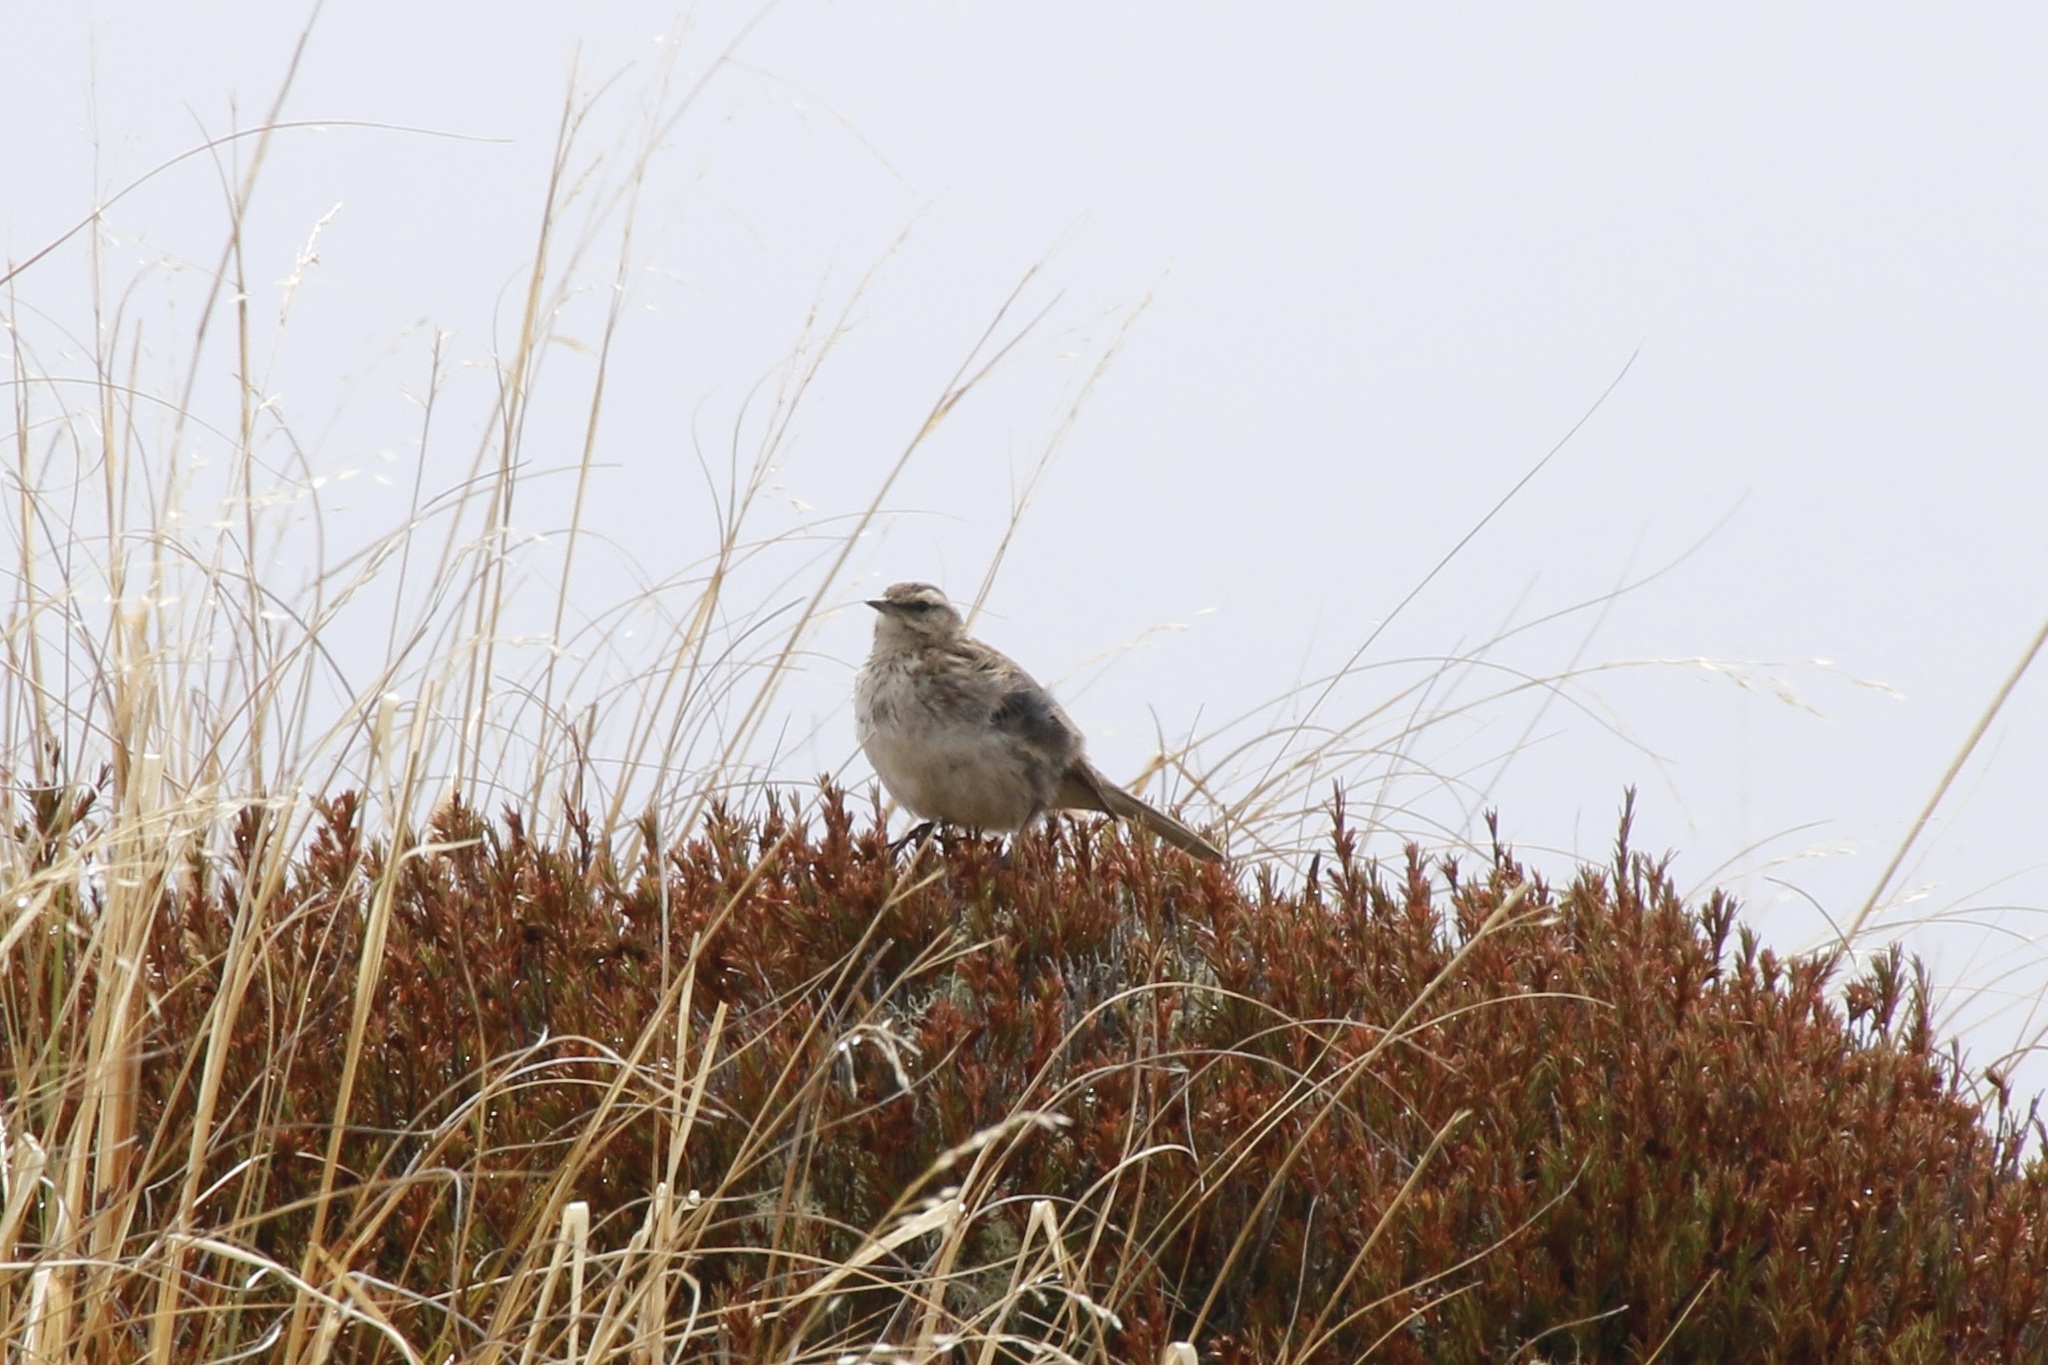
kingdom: Animalia
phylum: Chordata
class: Aves
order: Passeriformes
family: Motacillidae
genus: Anthus
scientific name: Anthus novaeseelandiae
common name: New zealand pipit
